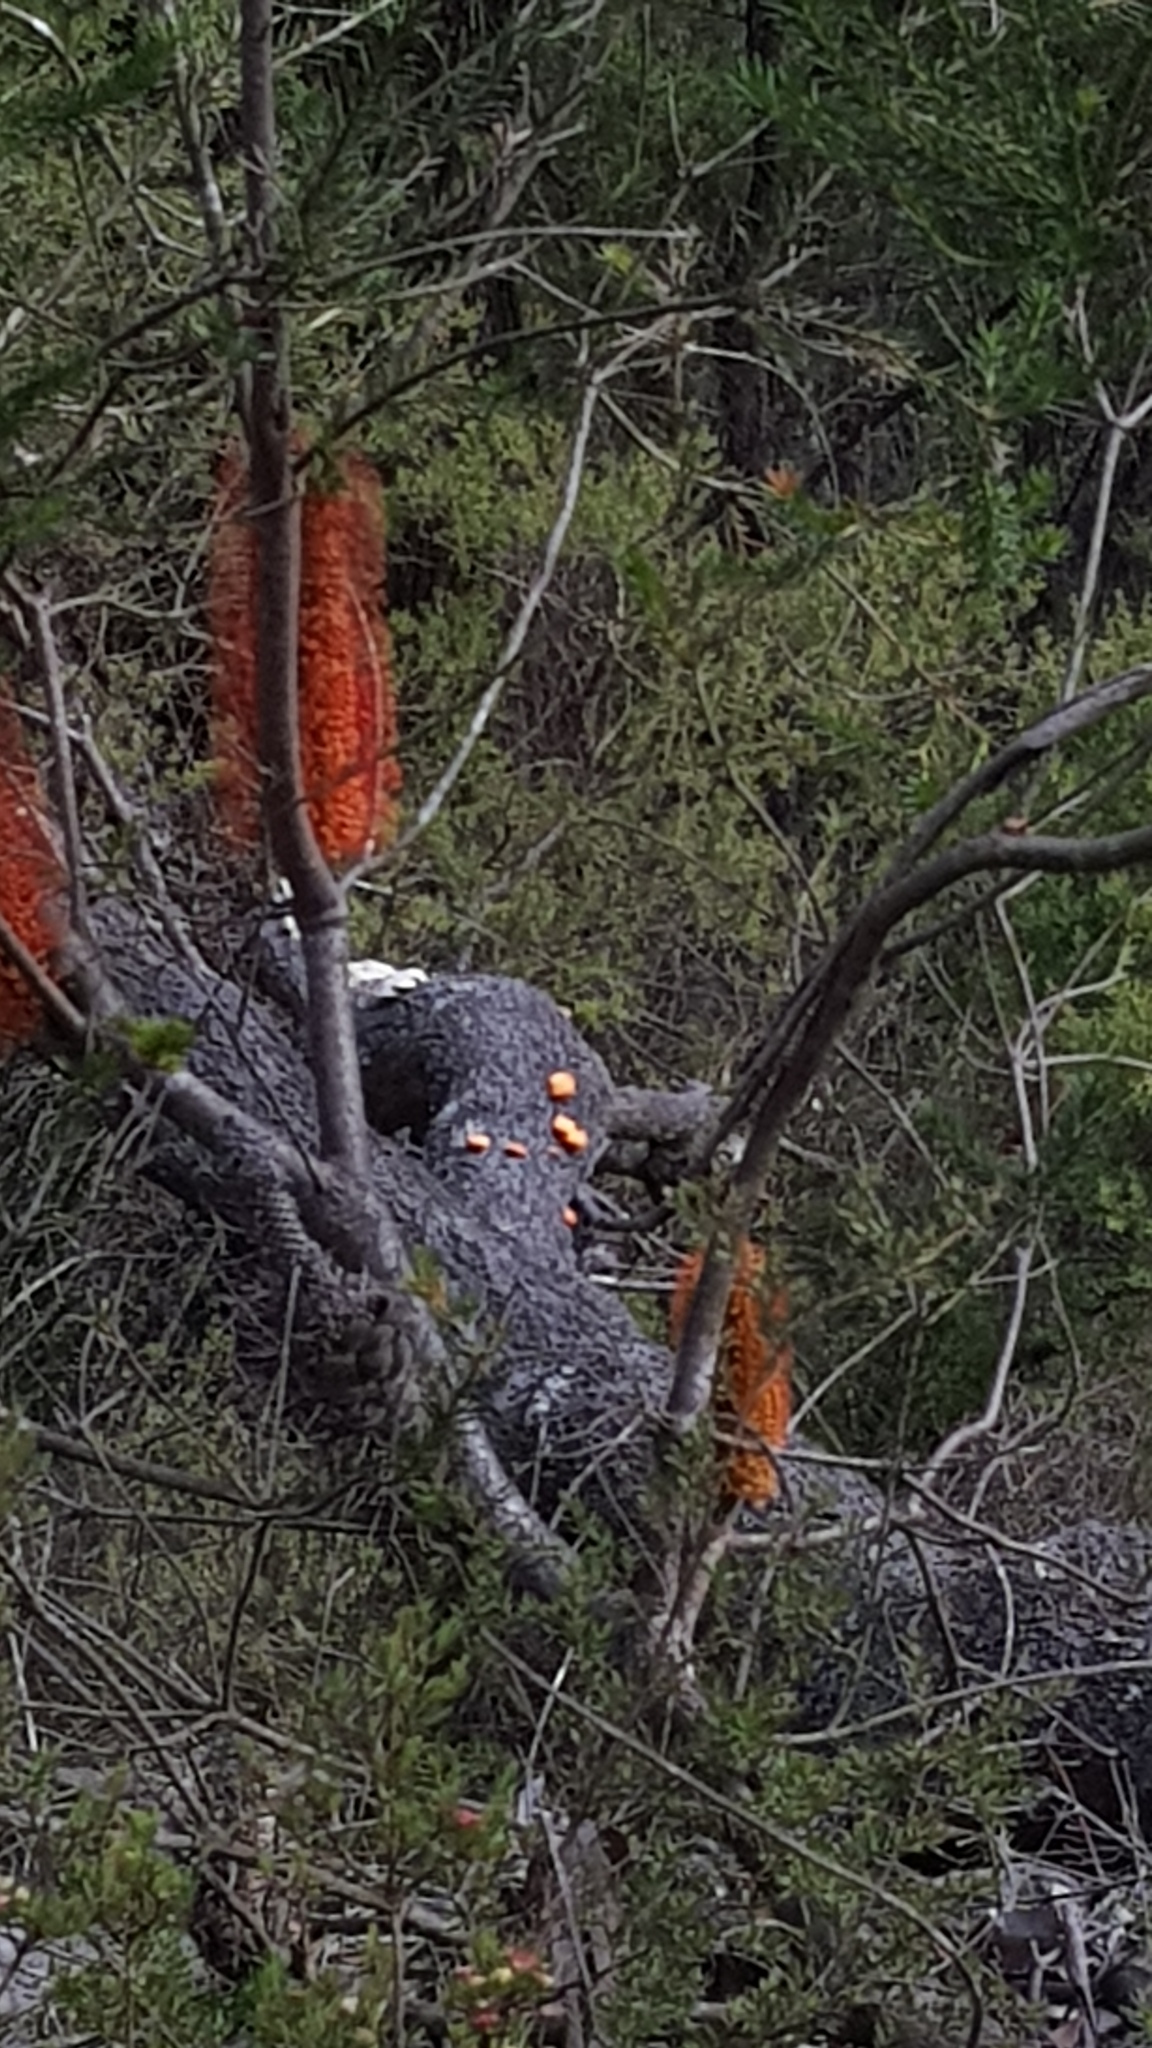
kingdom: Fungi
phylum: Basidiomycota
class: Agaricomycetes
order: Polyporales
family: Polyporaceae
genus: Trametes
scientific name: Trametes coccinea
